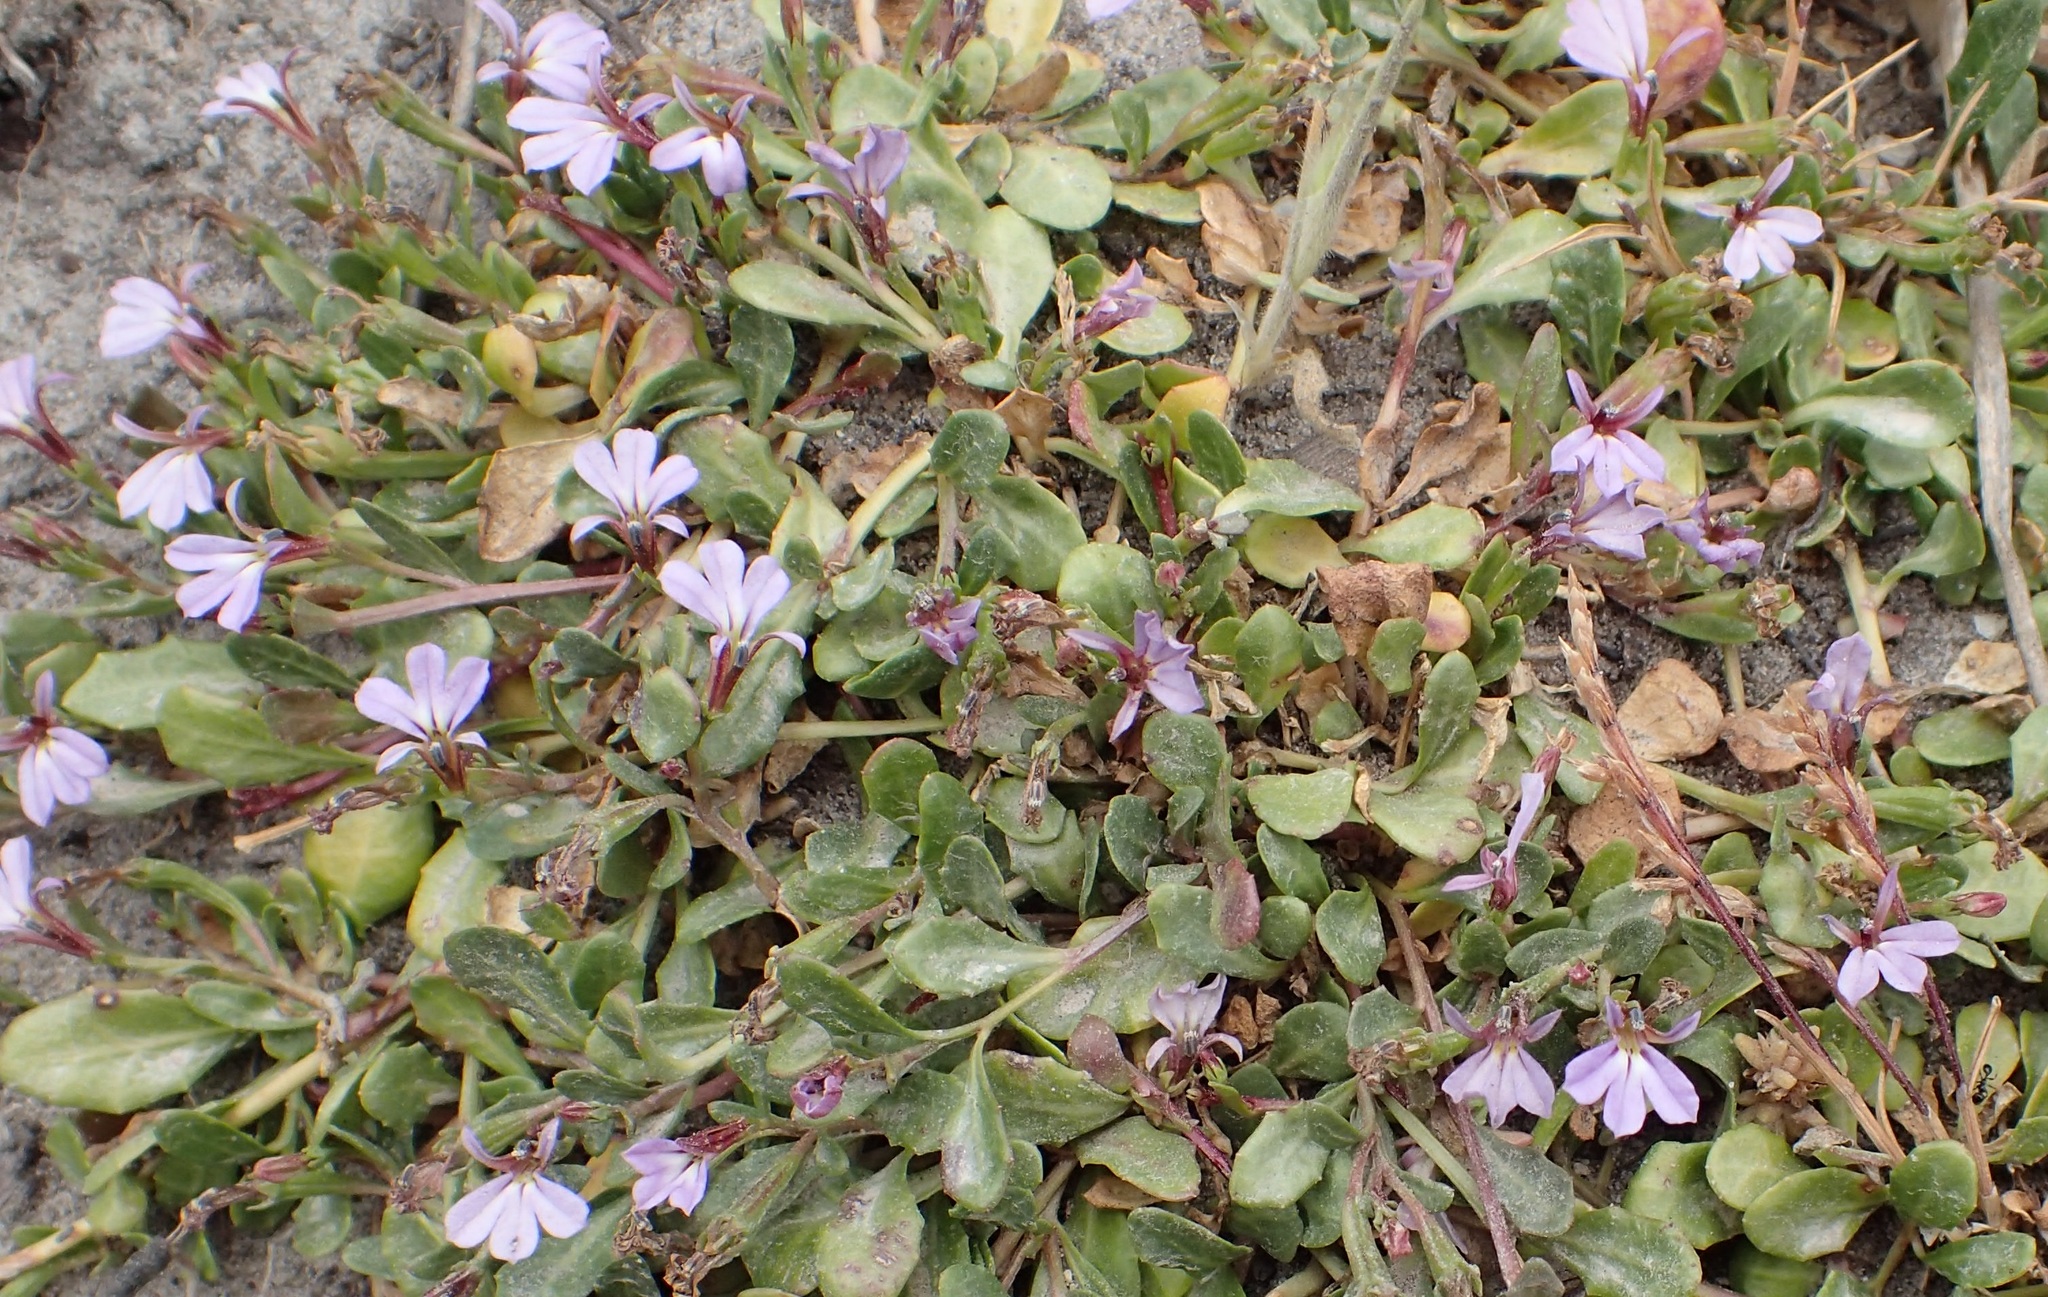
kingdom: Plantae
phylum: Tracheophyta
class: Magnoliopsida
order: Asterales
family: Campanulaceae
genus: Lobelia
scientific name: Lobelia anceps
